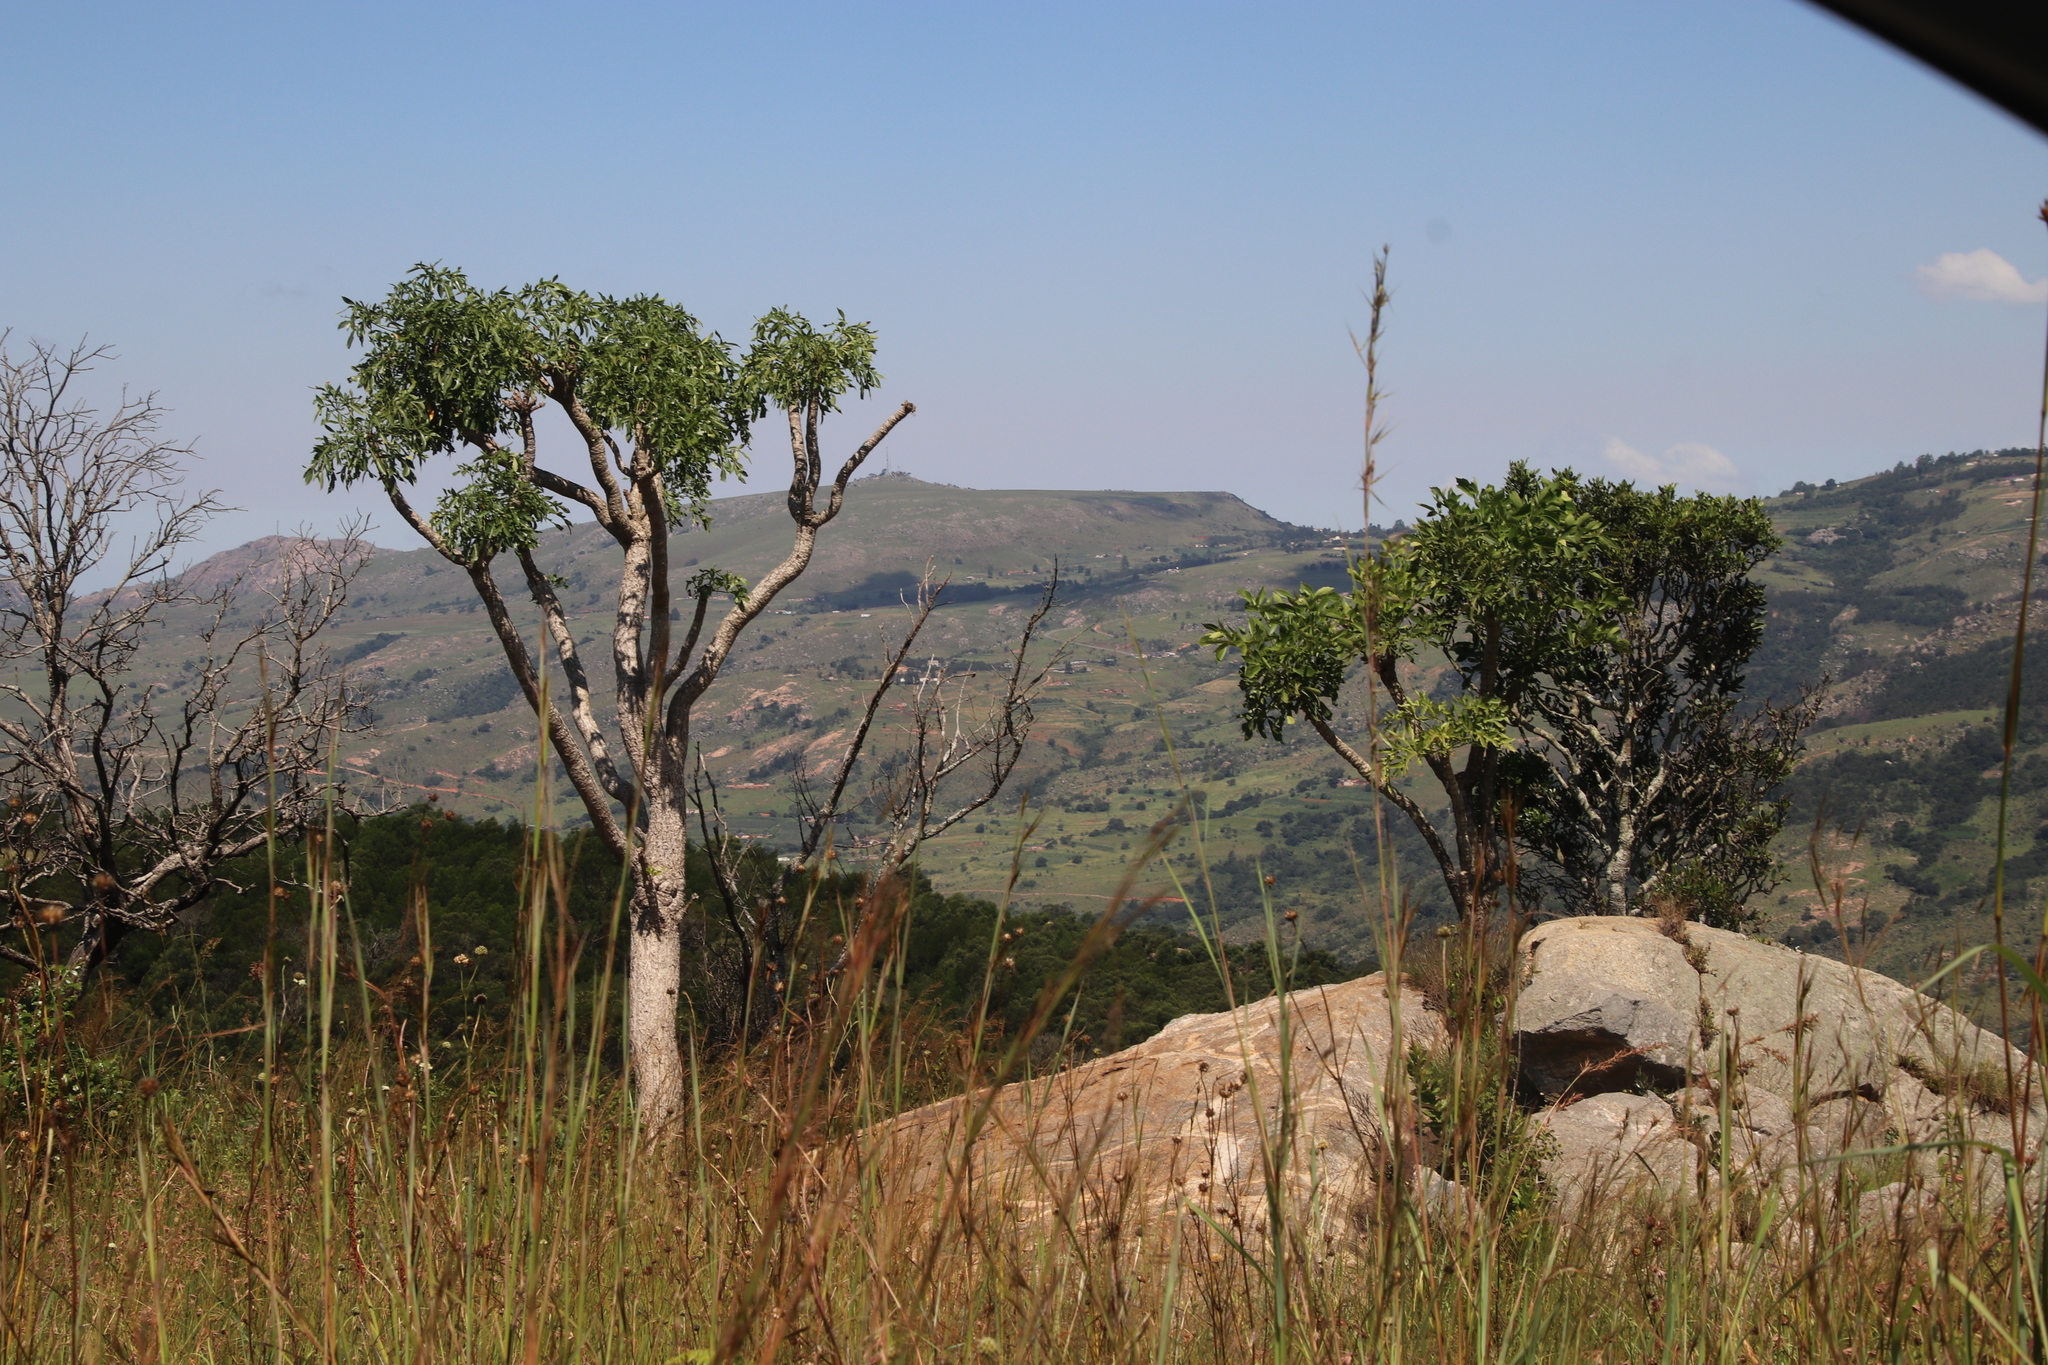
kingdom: Plantae
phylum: Tracheophyta
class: Magnoliopsida
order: Apiales
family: Araliaceae
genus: Cussonia
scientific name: Cussonia spicata
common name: Common cabbagetree
